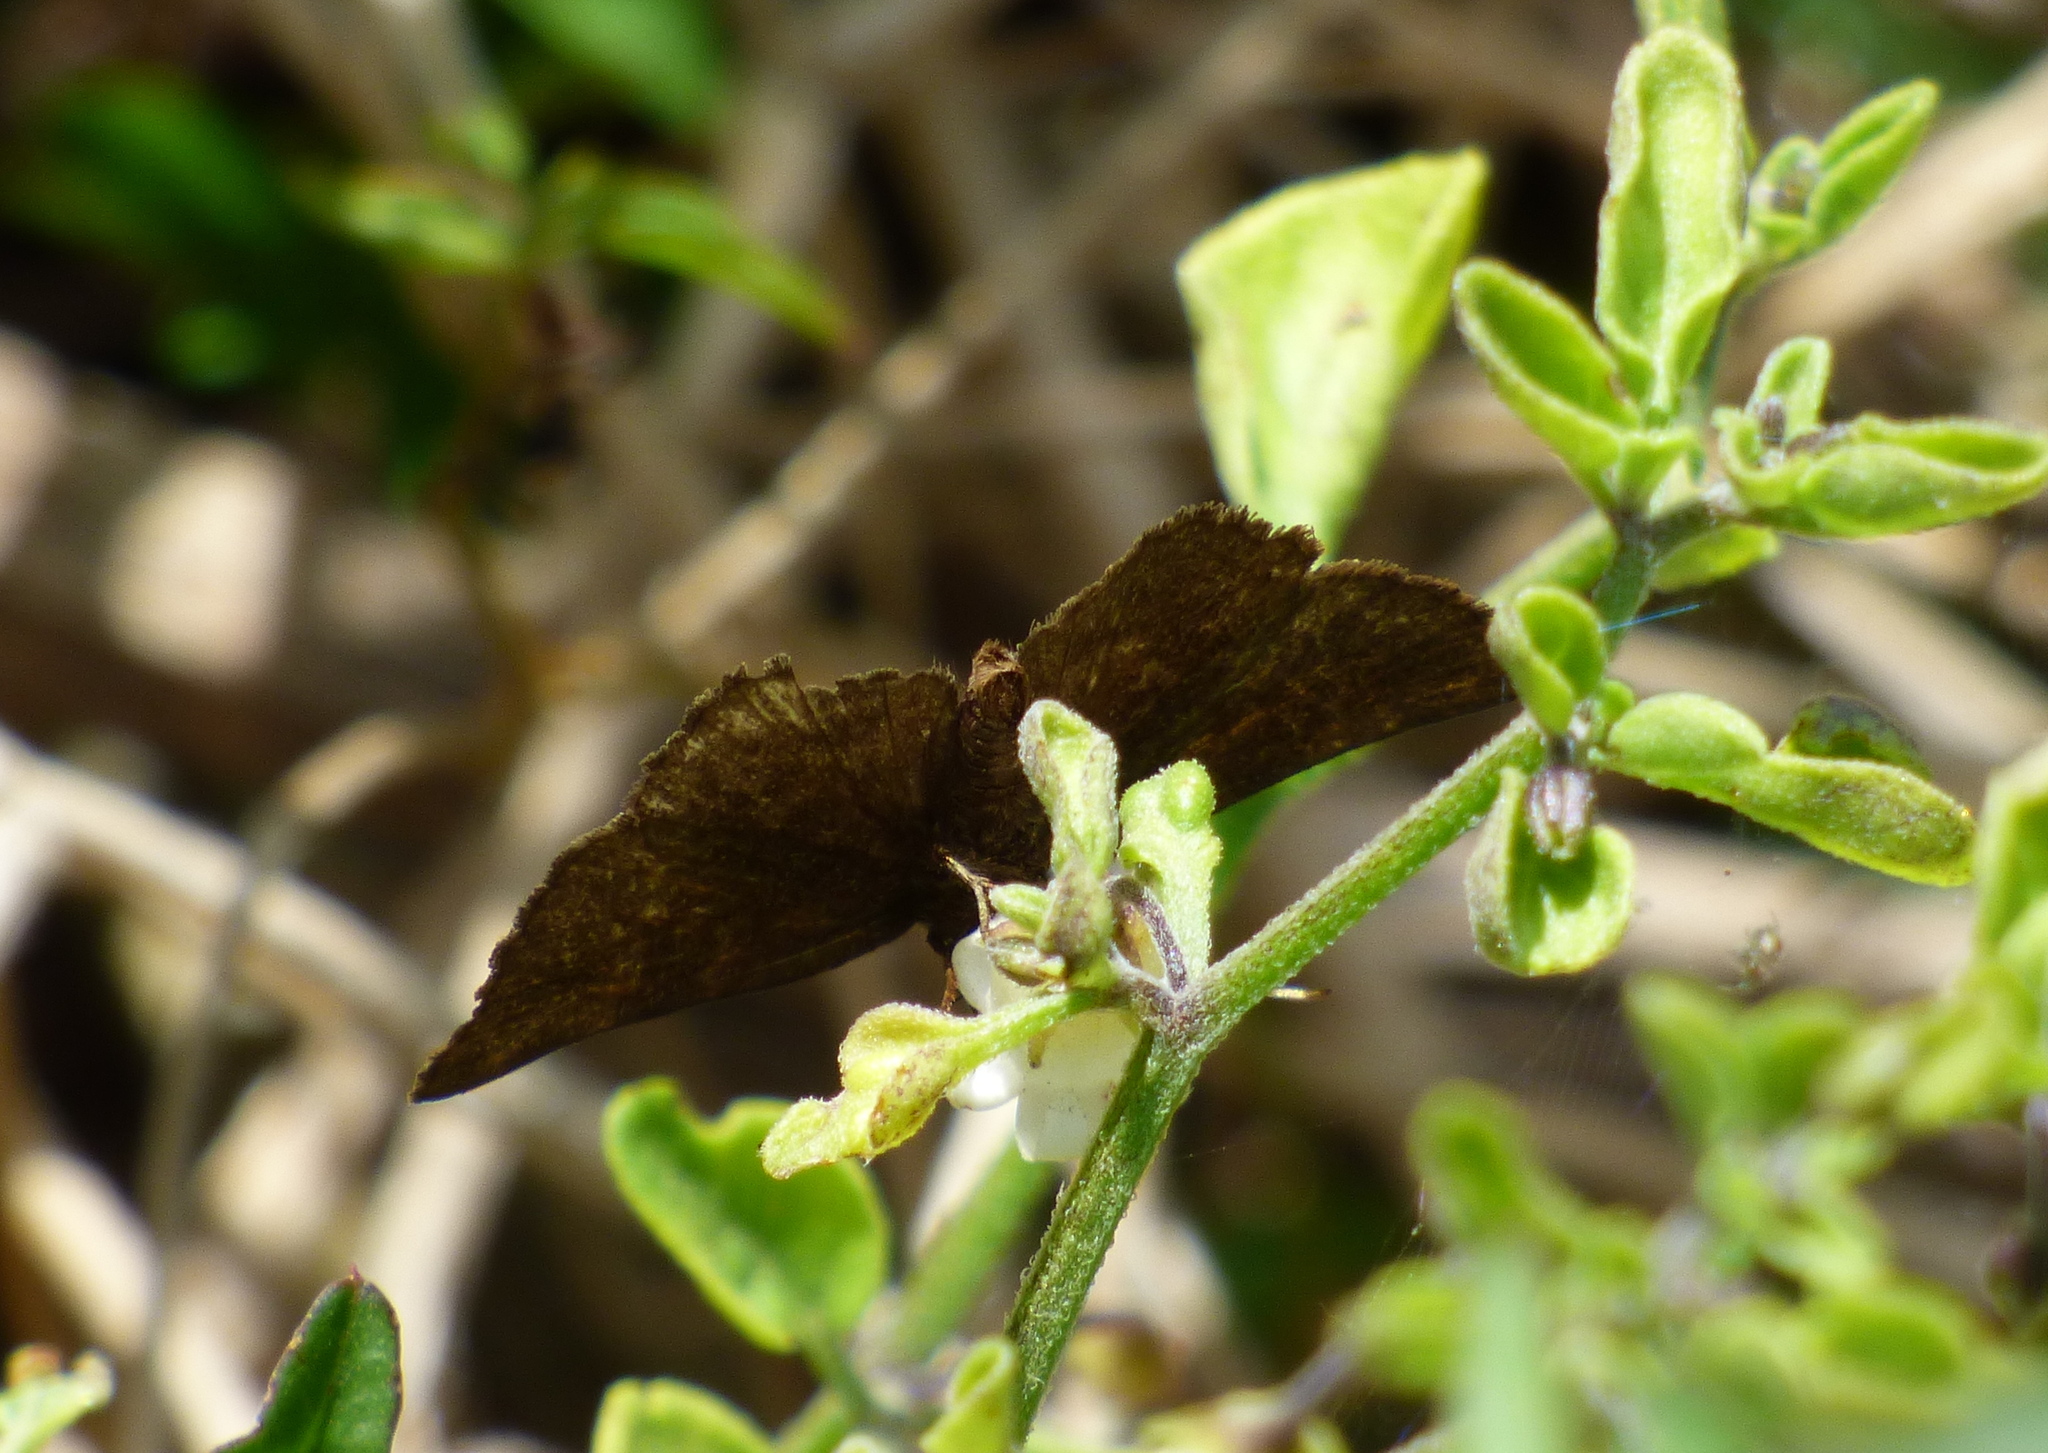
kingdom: Animalia
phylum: Arthropoda
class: Insecta
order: Lepidoptera
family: Hesperiidae
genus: Viola
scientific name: Viola minor
